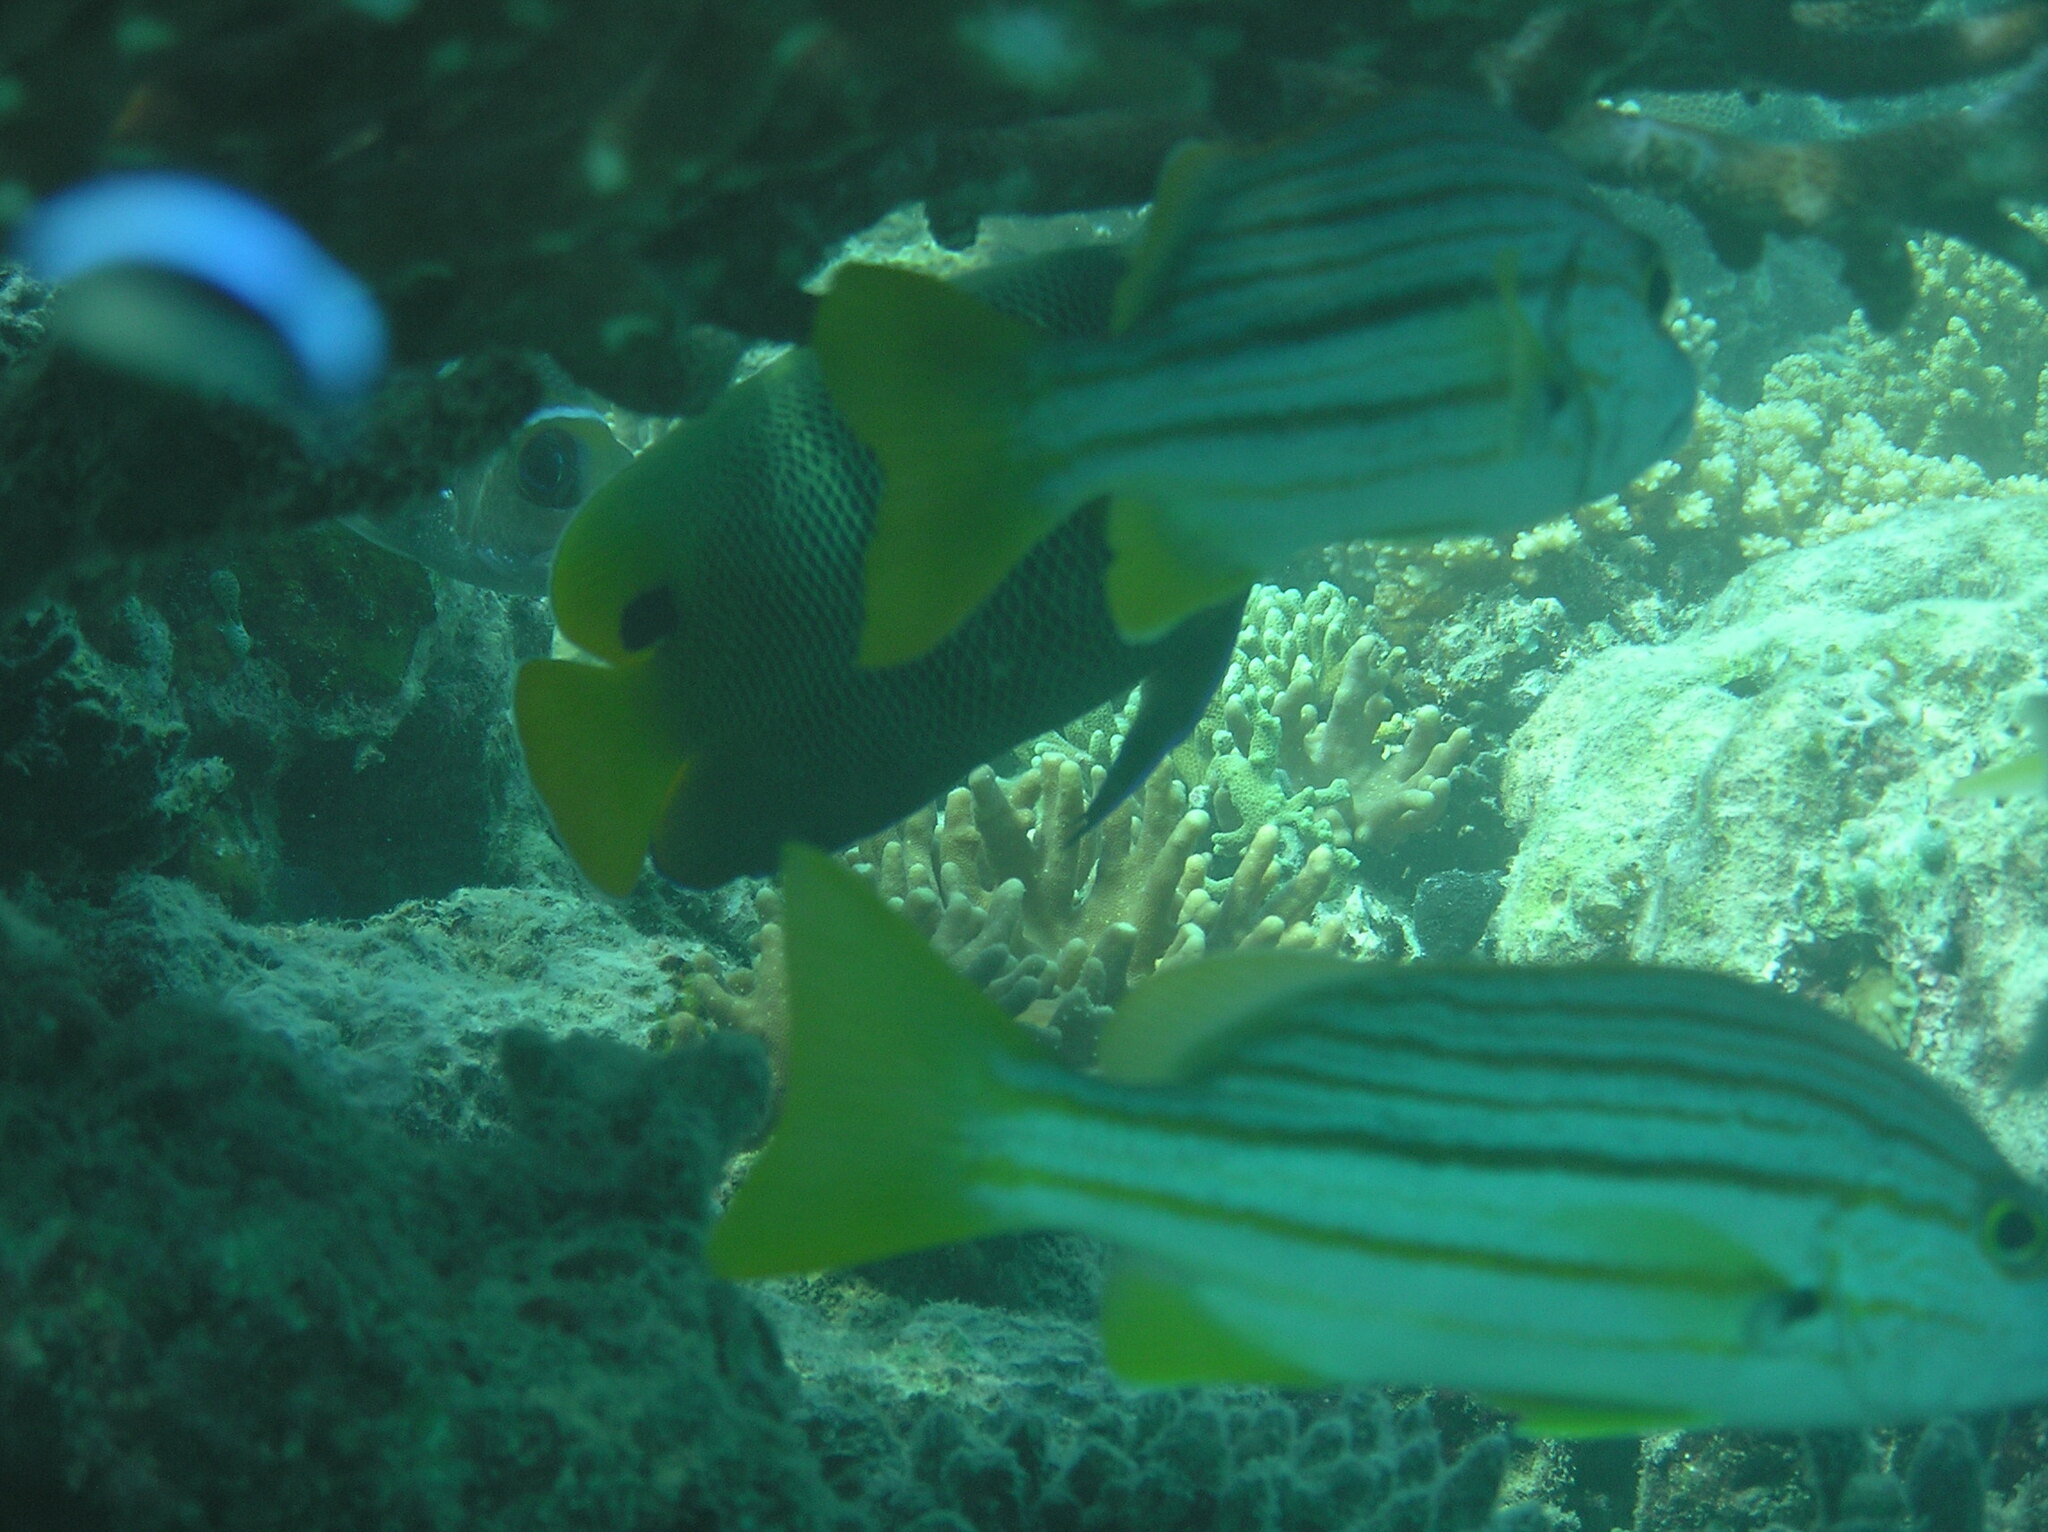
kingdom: Animalia
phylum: Chordata
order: Perciformes
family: Pomacanthidae
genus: Pomacanthus
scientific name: Pomacanthus xanthometopon
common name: Yellow-faced angelfish
